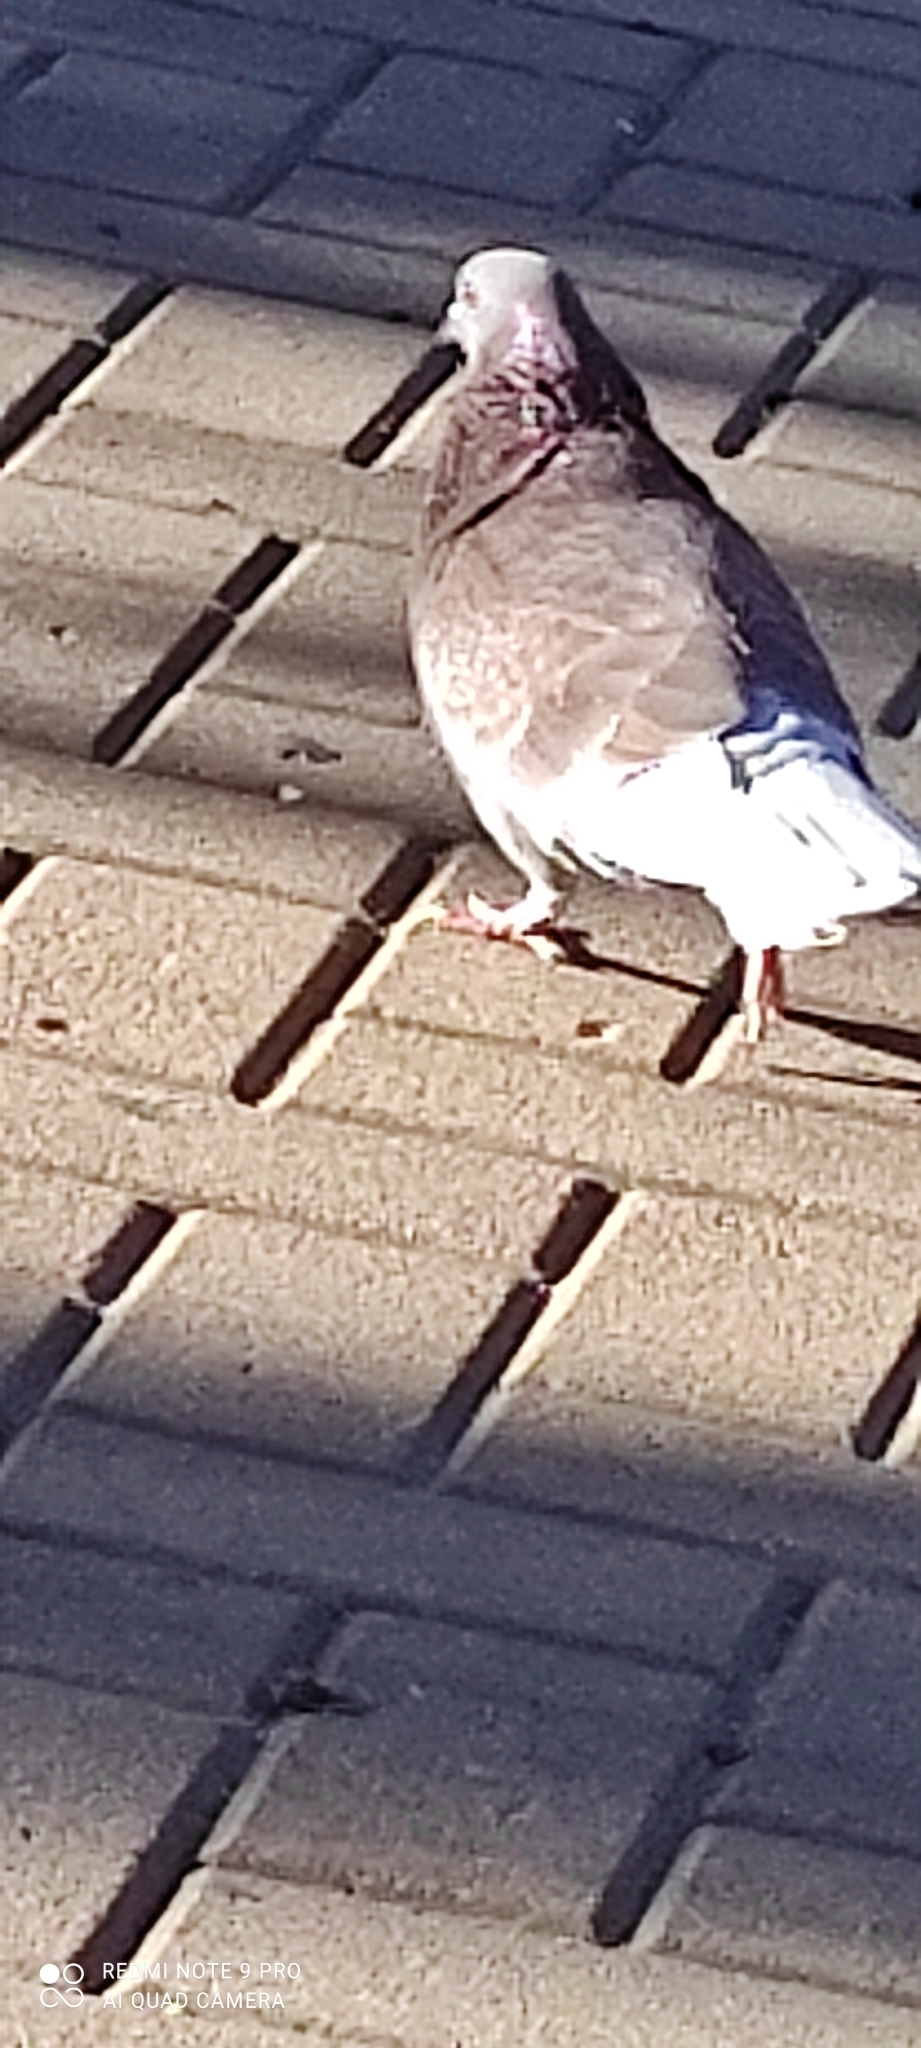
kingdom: Animalia
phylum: Chordata
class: Aves
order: Columbiformes
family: Columbidae
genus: Columba
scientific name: Columba livia
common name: Rock pigeon
